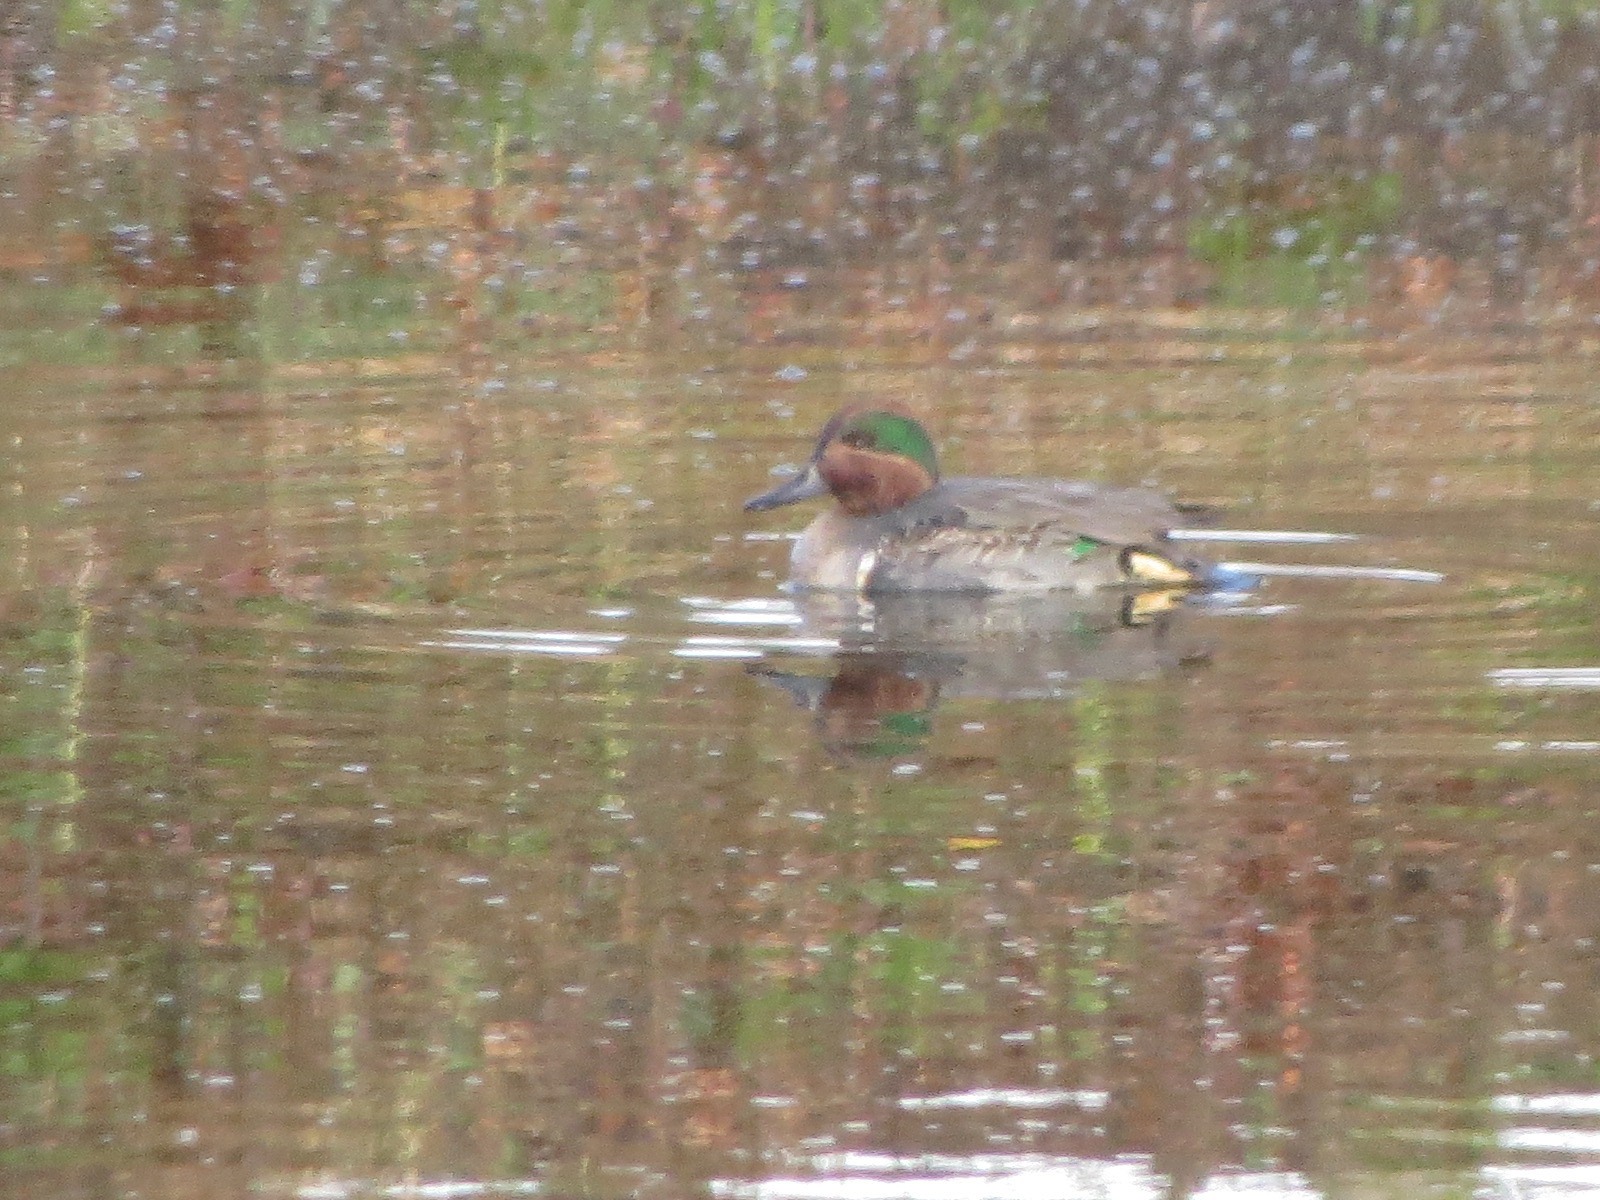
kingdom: Animalia
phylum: Chordata
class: Aves
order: Anseriformes
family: Anatidae
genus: Anas
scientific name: Anas carolinensis
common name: Green-winged teal
